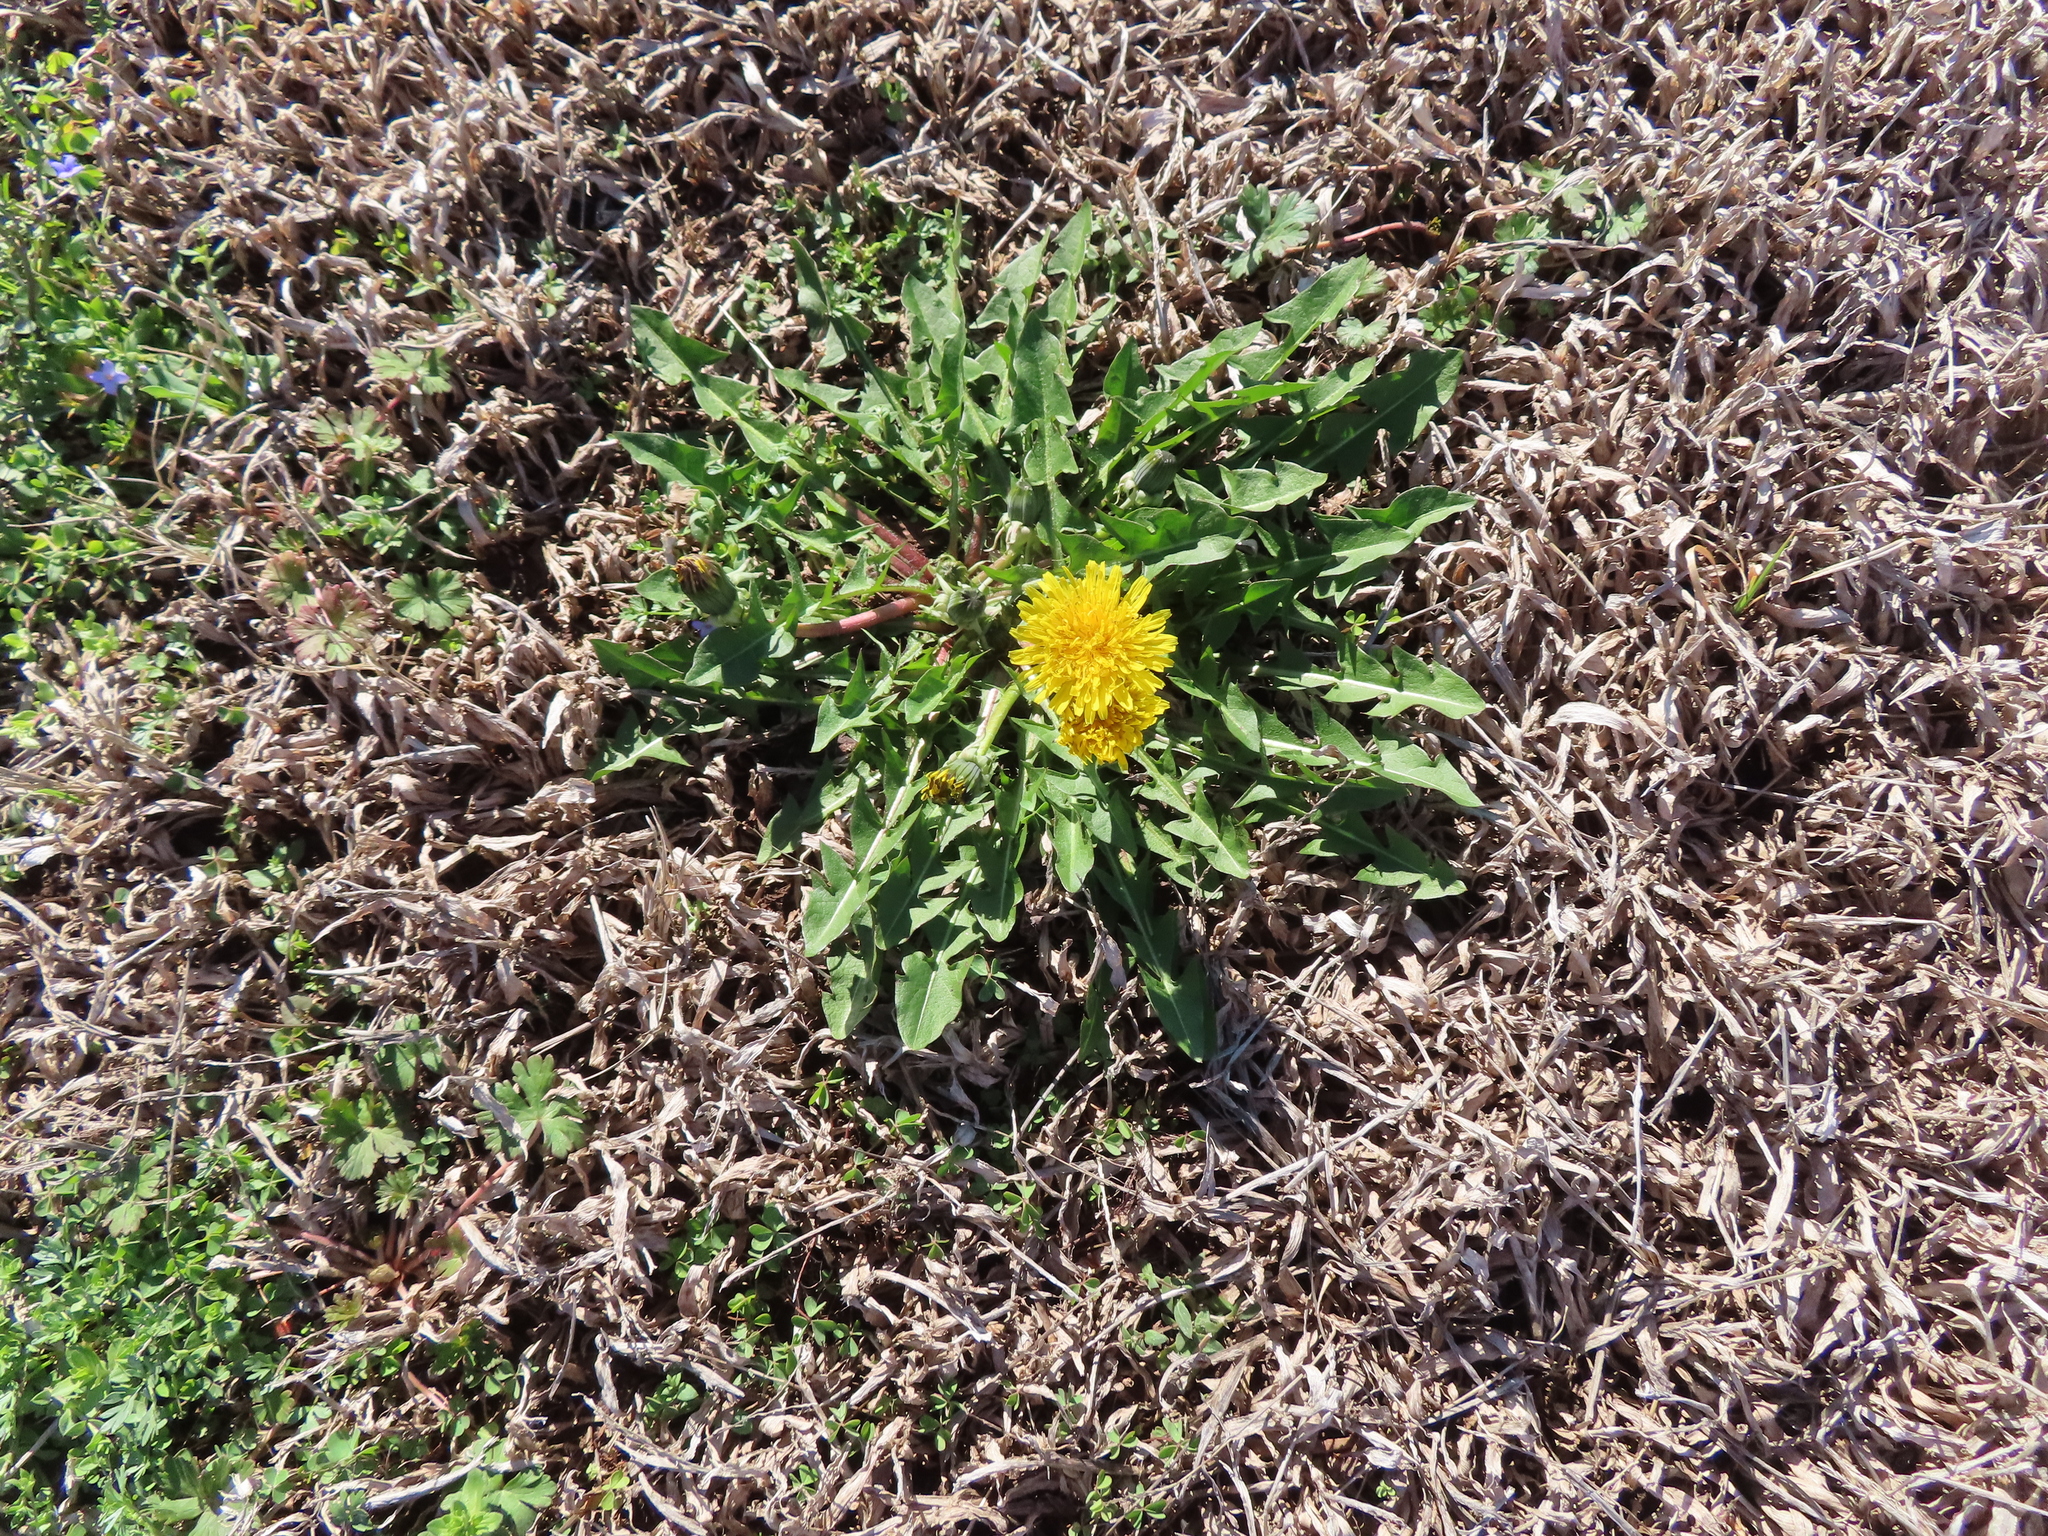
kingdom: Plantae
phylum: Tracheophyta
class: Magnoliopsida
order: Asterales
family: Asteraceae
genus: Taraxacum
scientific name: Taraxacum
